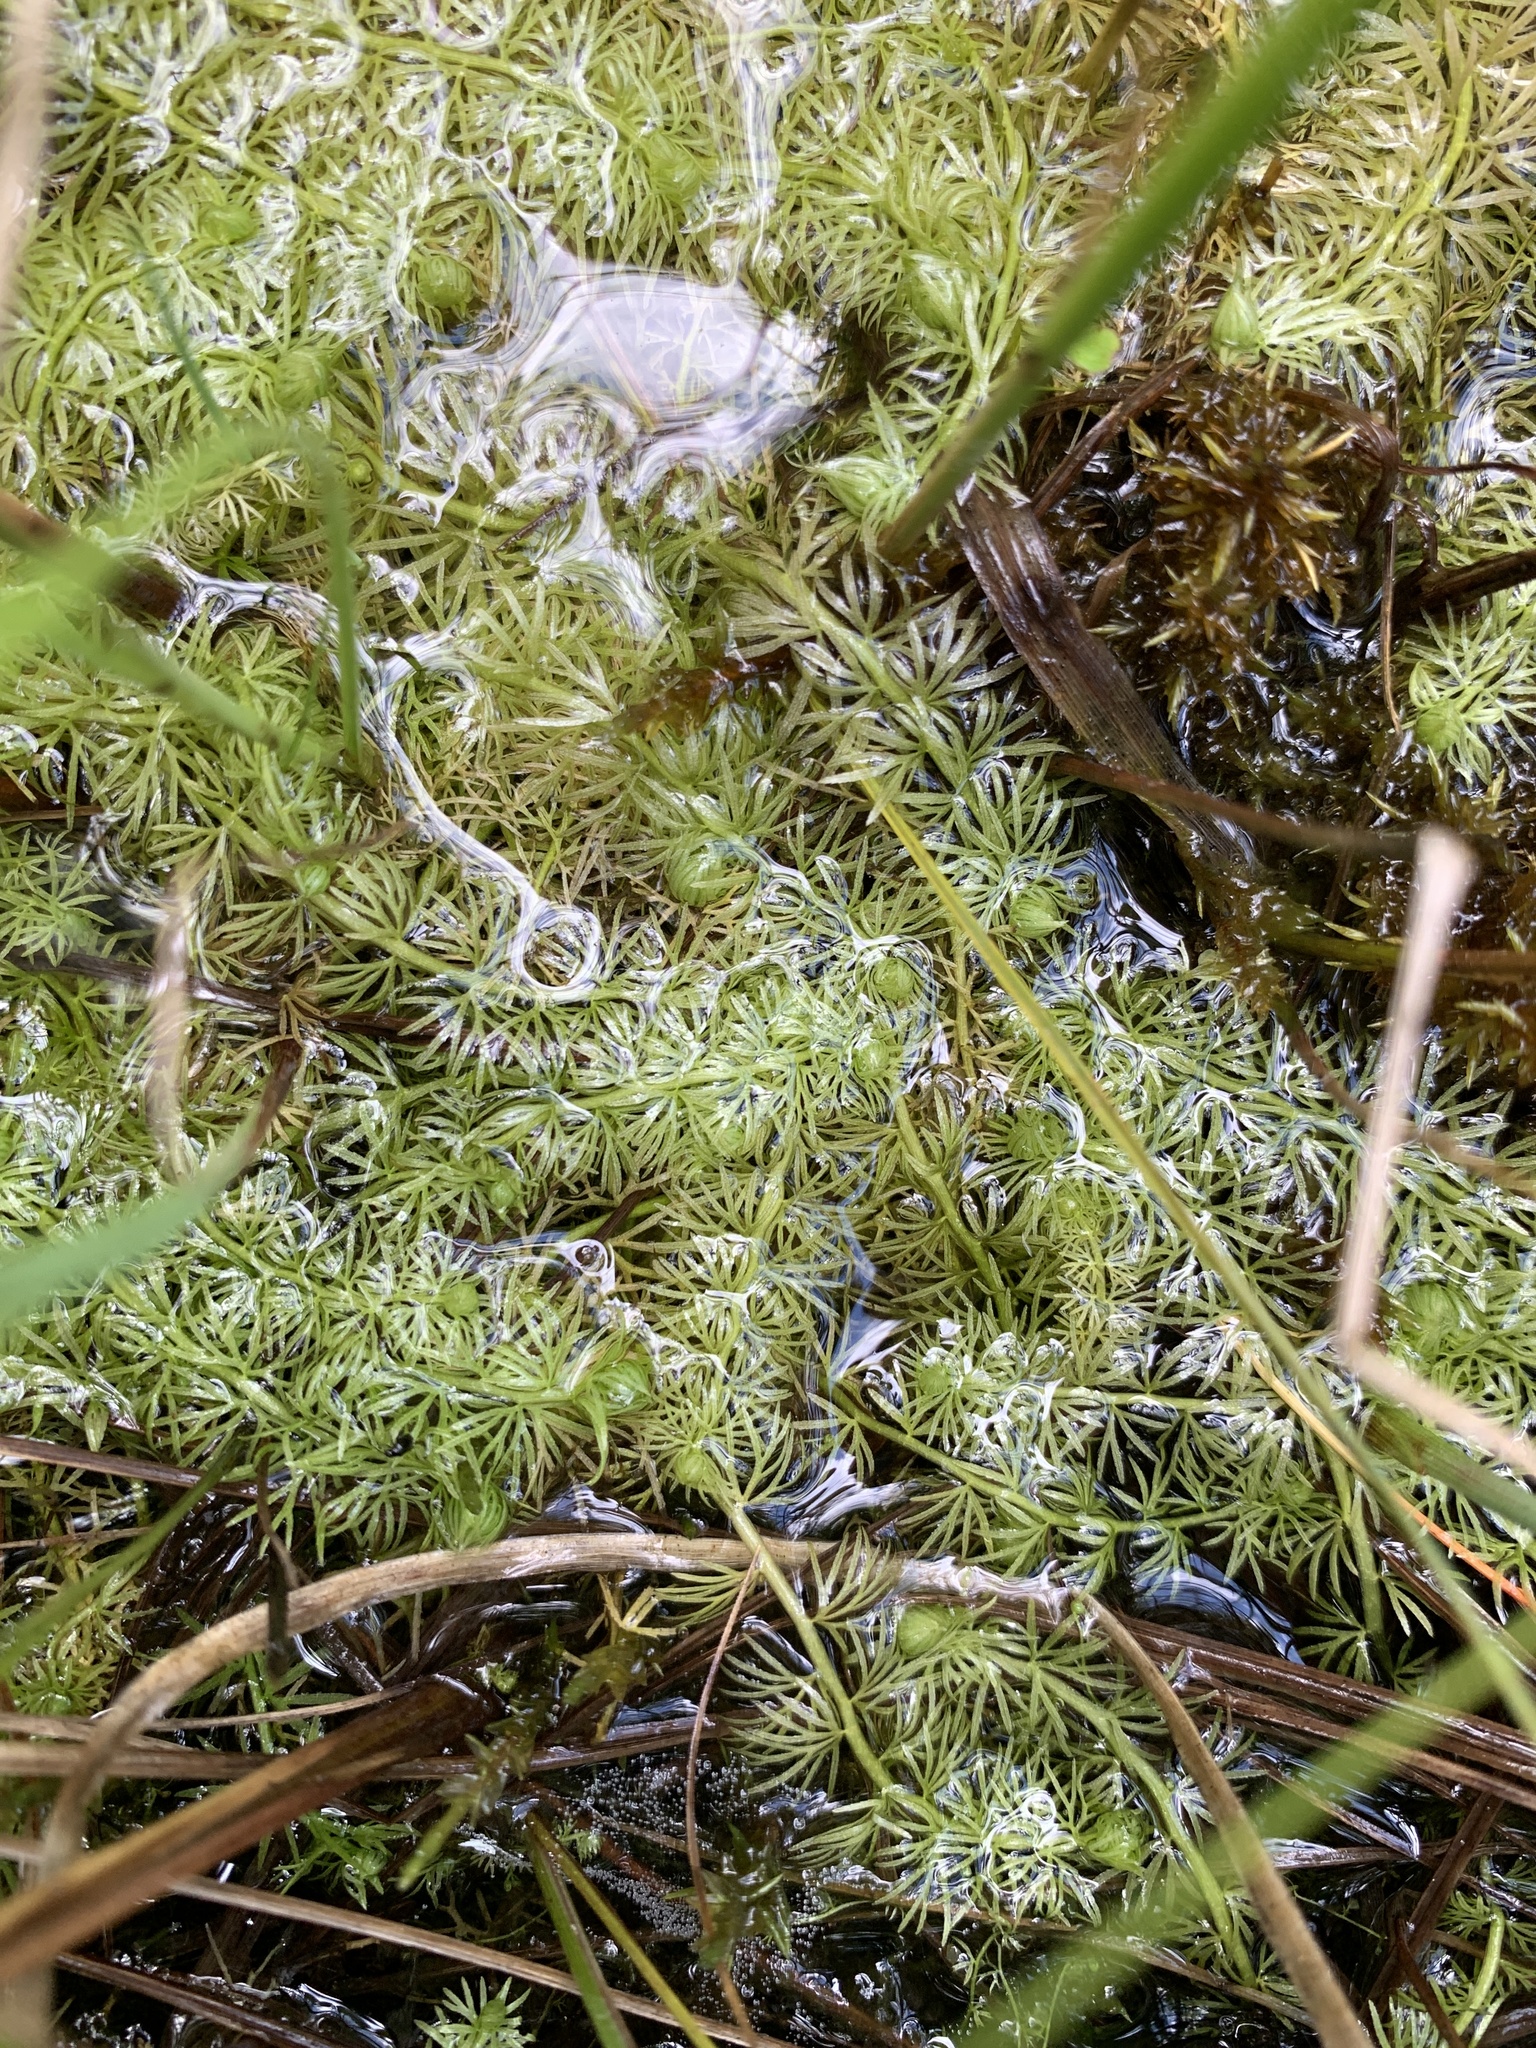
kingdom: Plantae
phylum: Tracheophyta
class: Magnoliopsida
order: Lamiales
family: Lentibulariaceae
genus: Utricularia
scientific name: Utricularia intermedia
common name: Intermediate bladderwort
